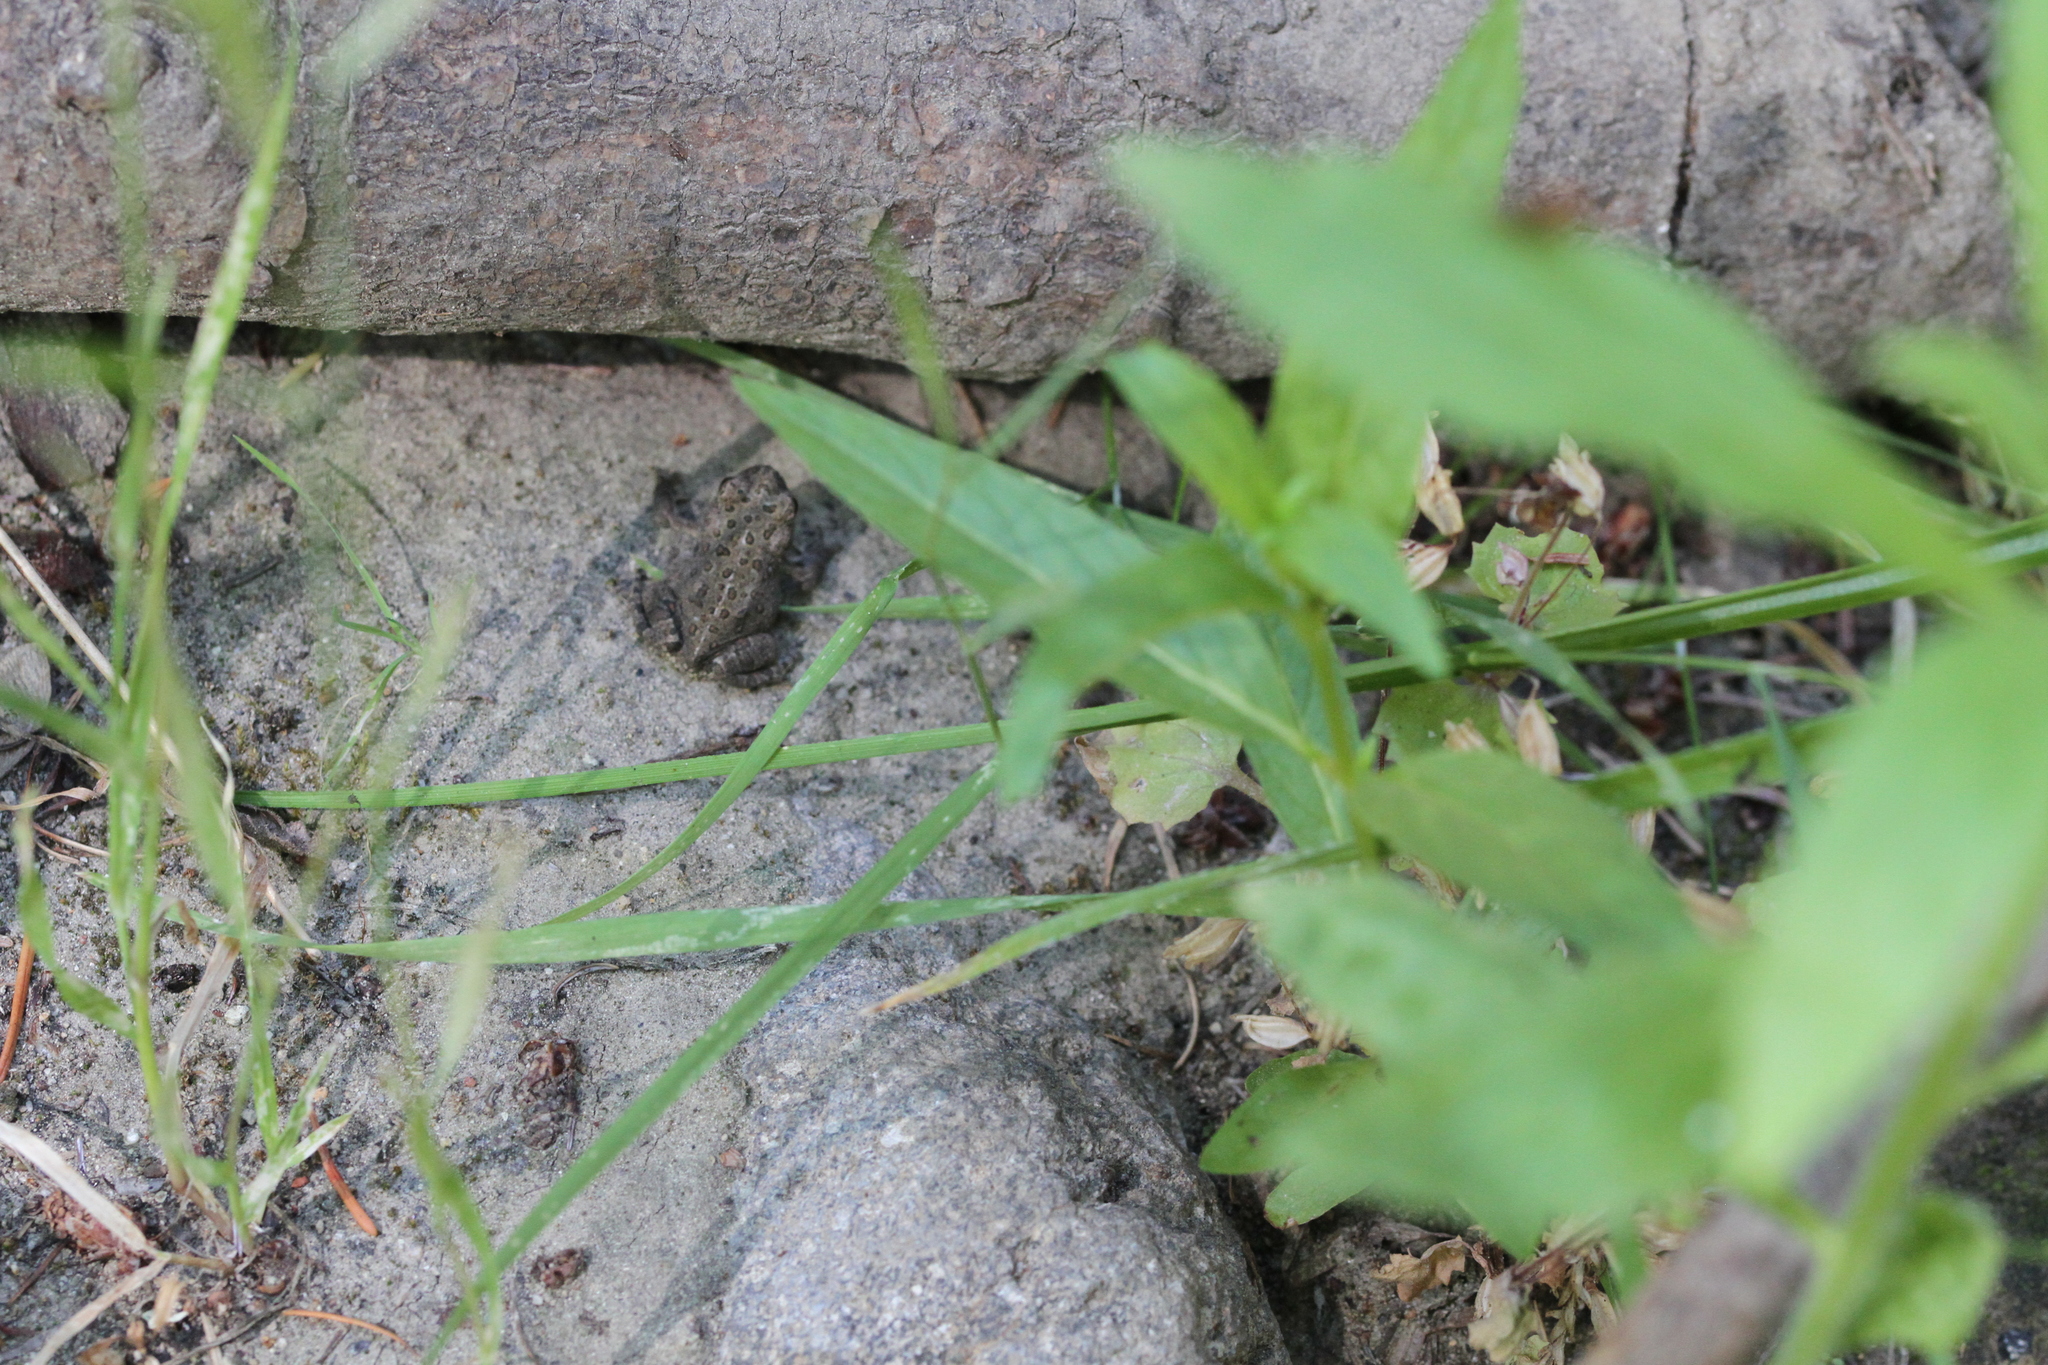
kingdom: Animalia
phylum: Chordata
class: Amphibia
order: Anura
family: Bufonidae
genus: Anaxyrus
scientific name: Anaxyrus boreas
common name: Western toad
